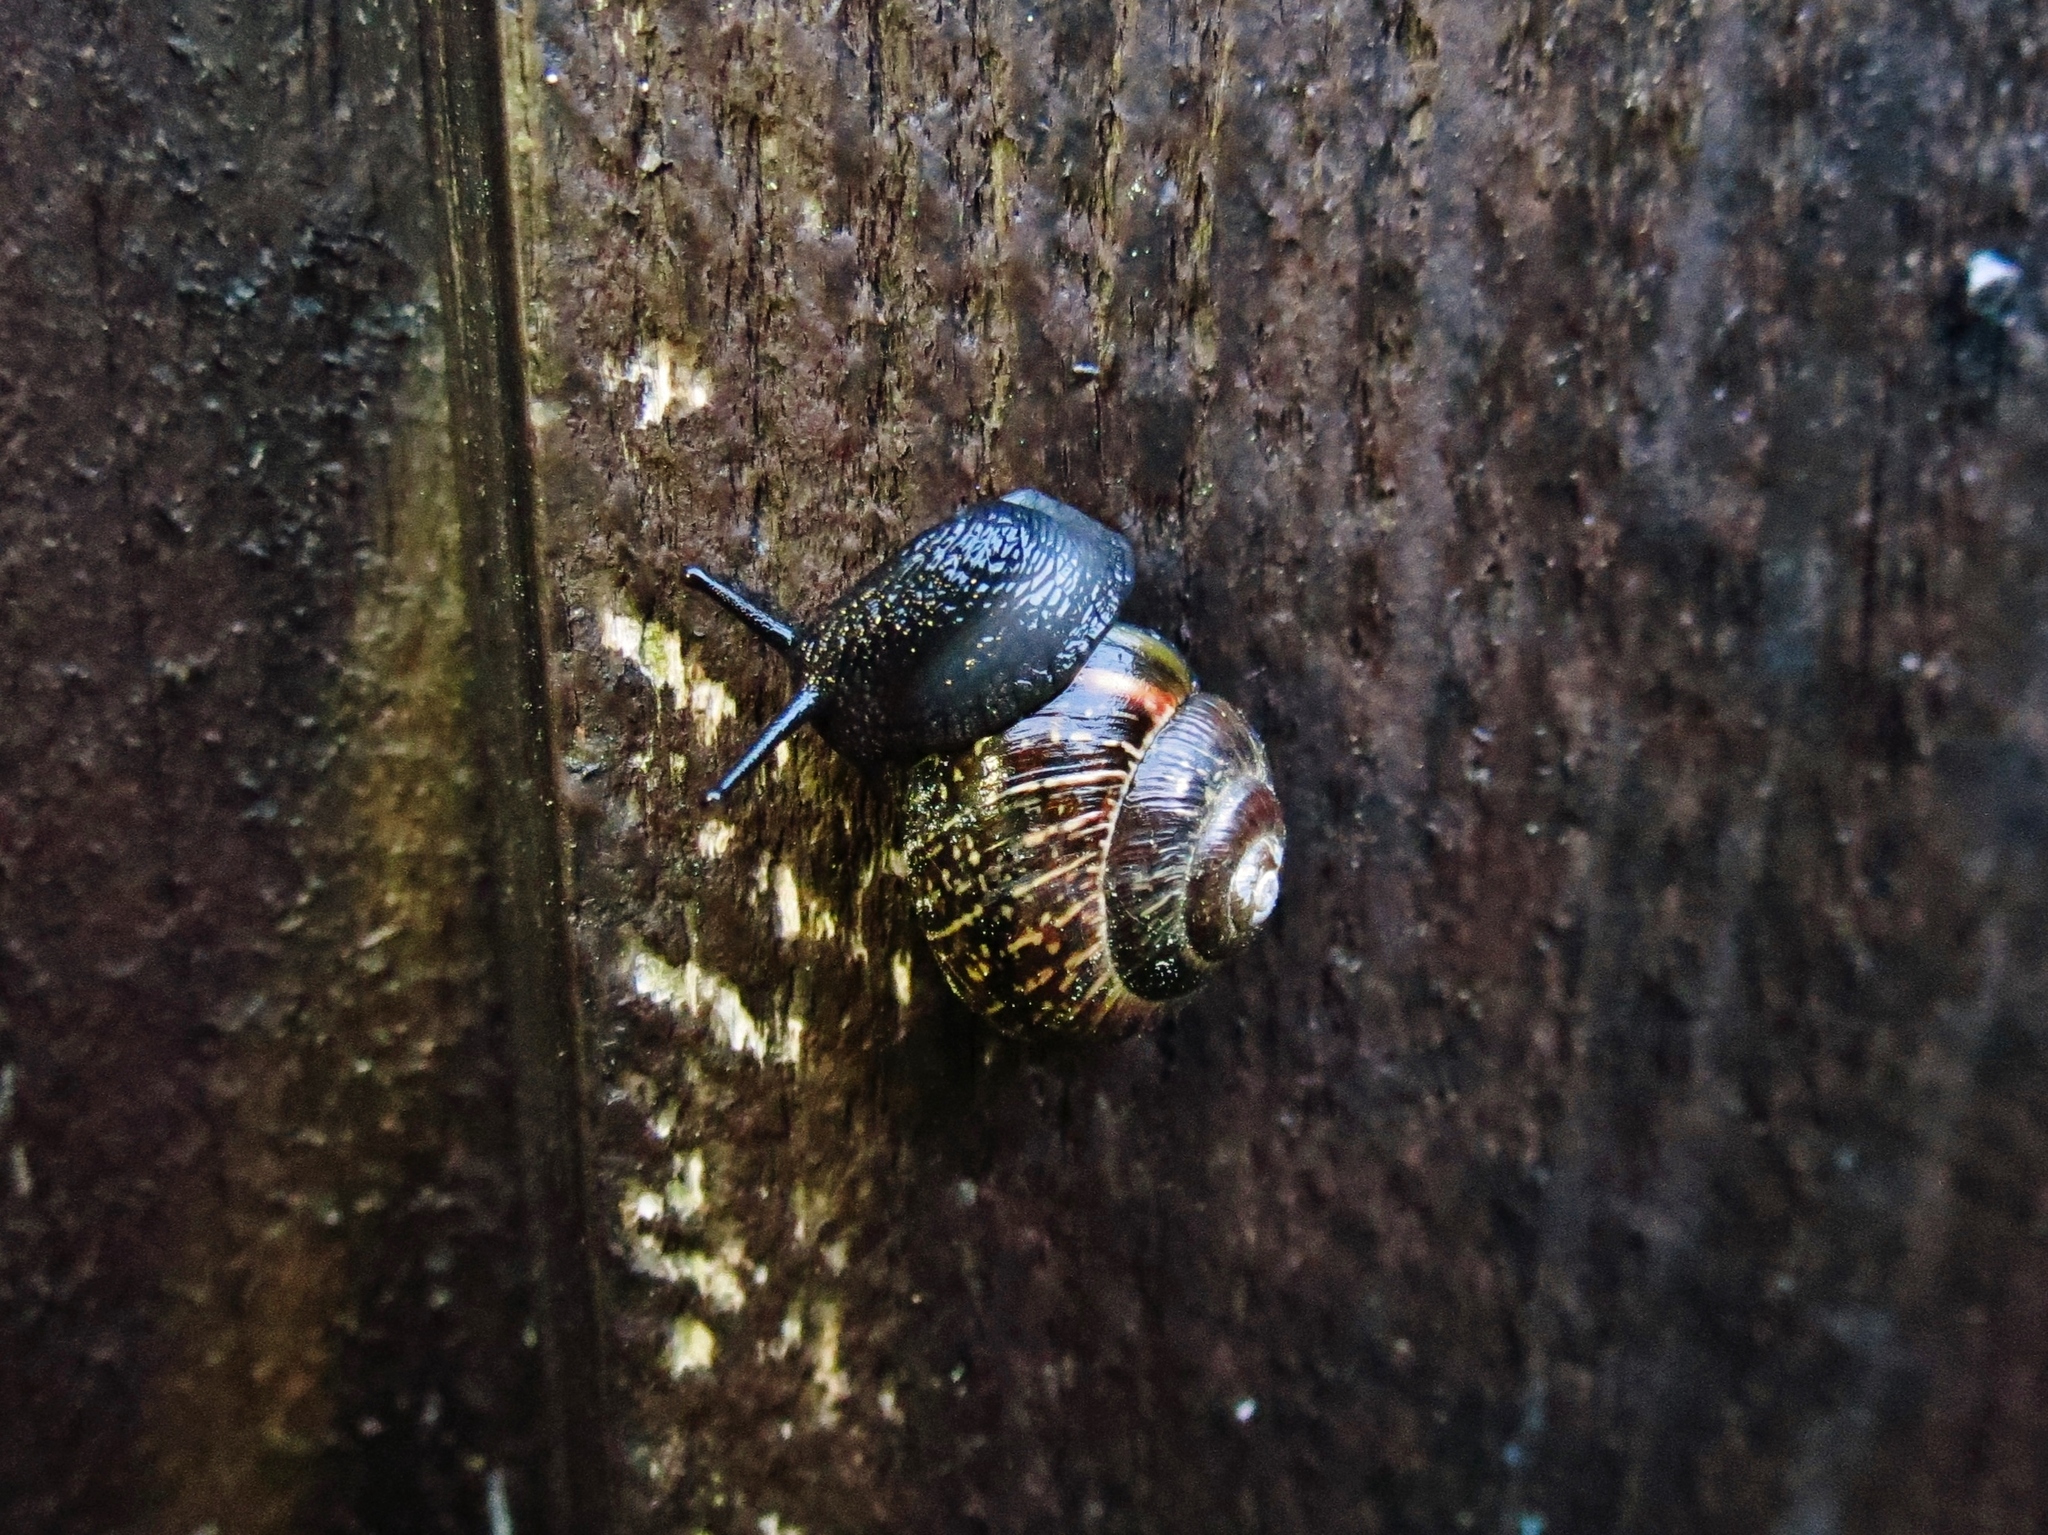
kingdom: Animalia
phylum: Mollusca
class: Gastropoda
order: Stylommatophora
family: Helicidae
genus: Arianta
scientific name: Arianta arbustorum
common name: Copse snail
